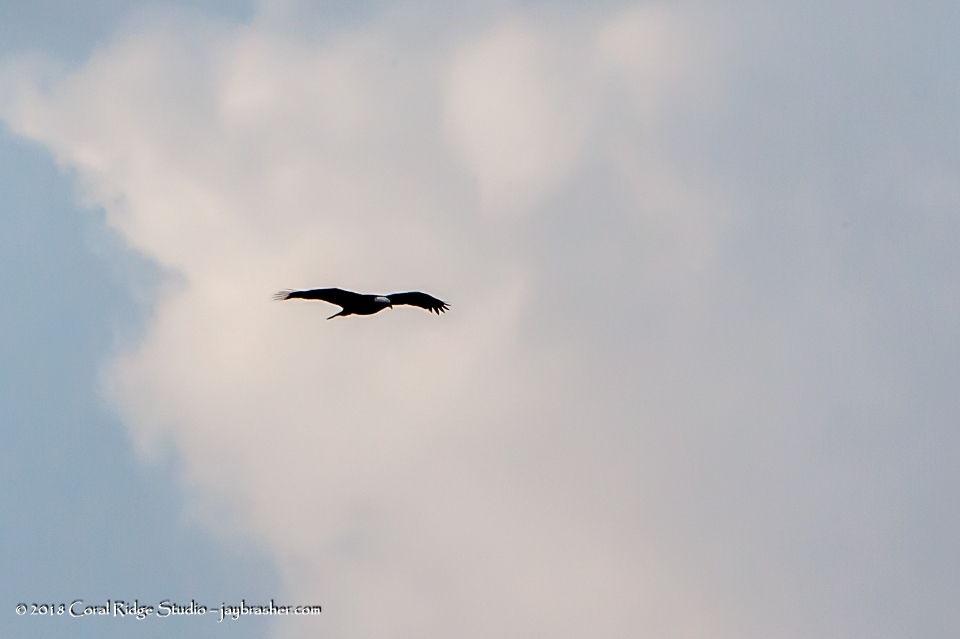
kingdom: Animalia
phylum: Chordata
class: Aves
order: Accipitriformes
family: Accipitridae
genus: Haliaeetus
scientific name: Haliaeetus leucocephalus
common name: Bald eagle
